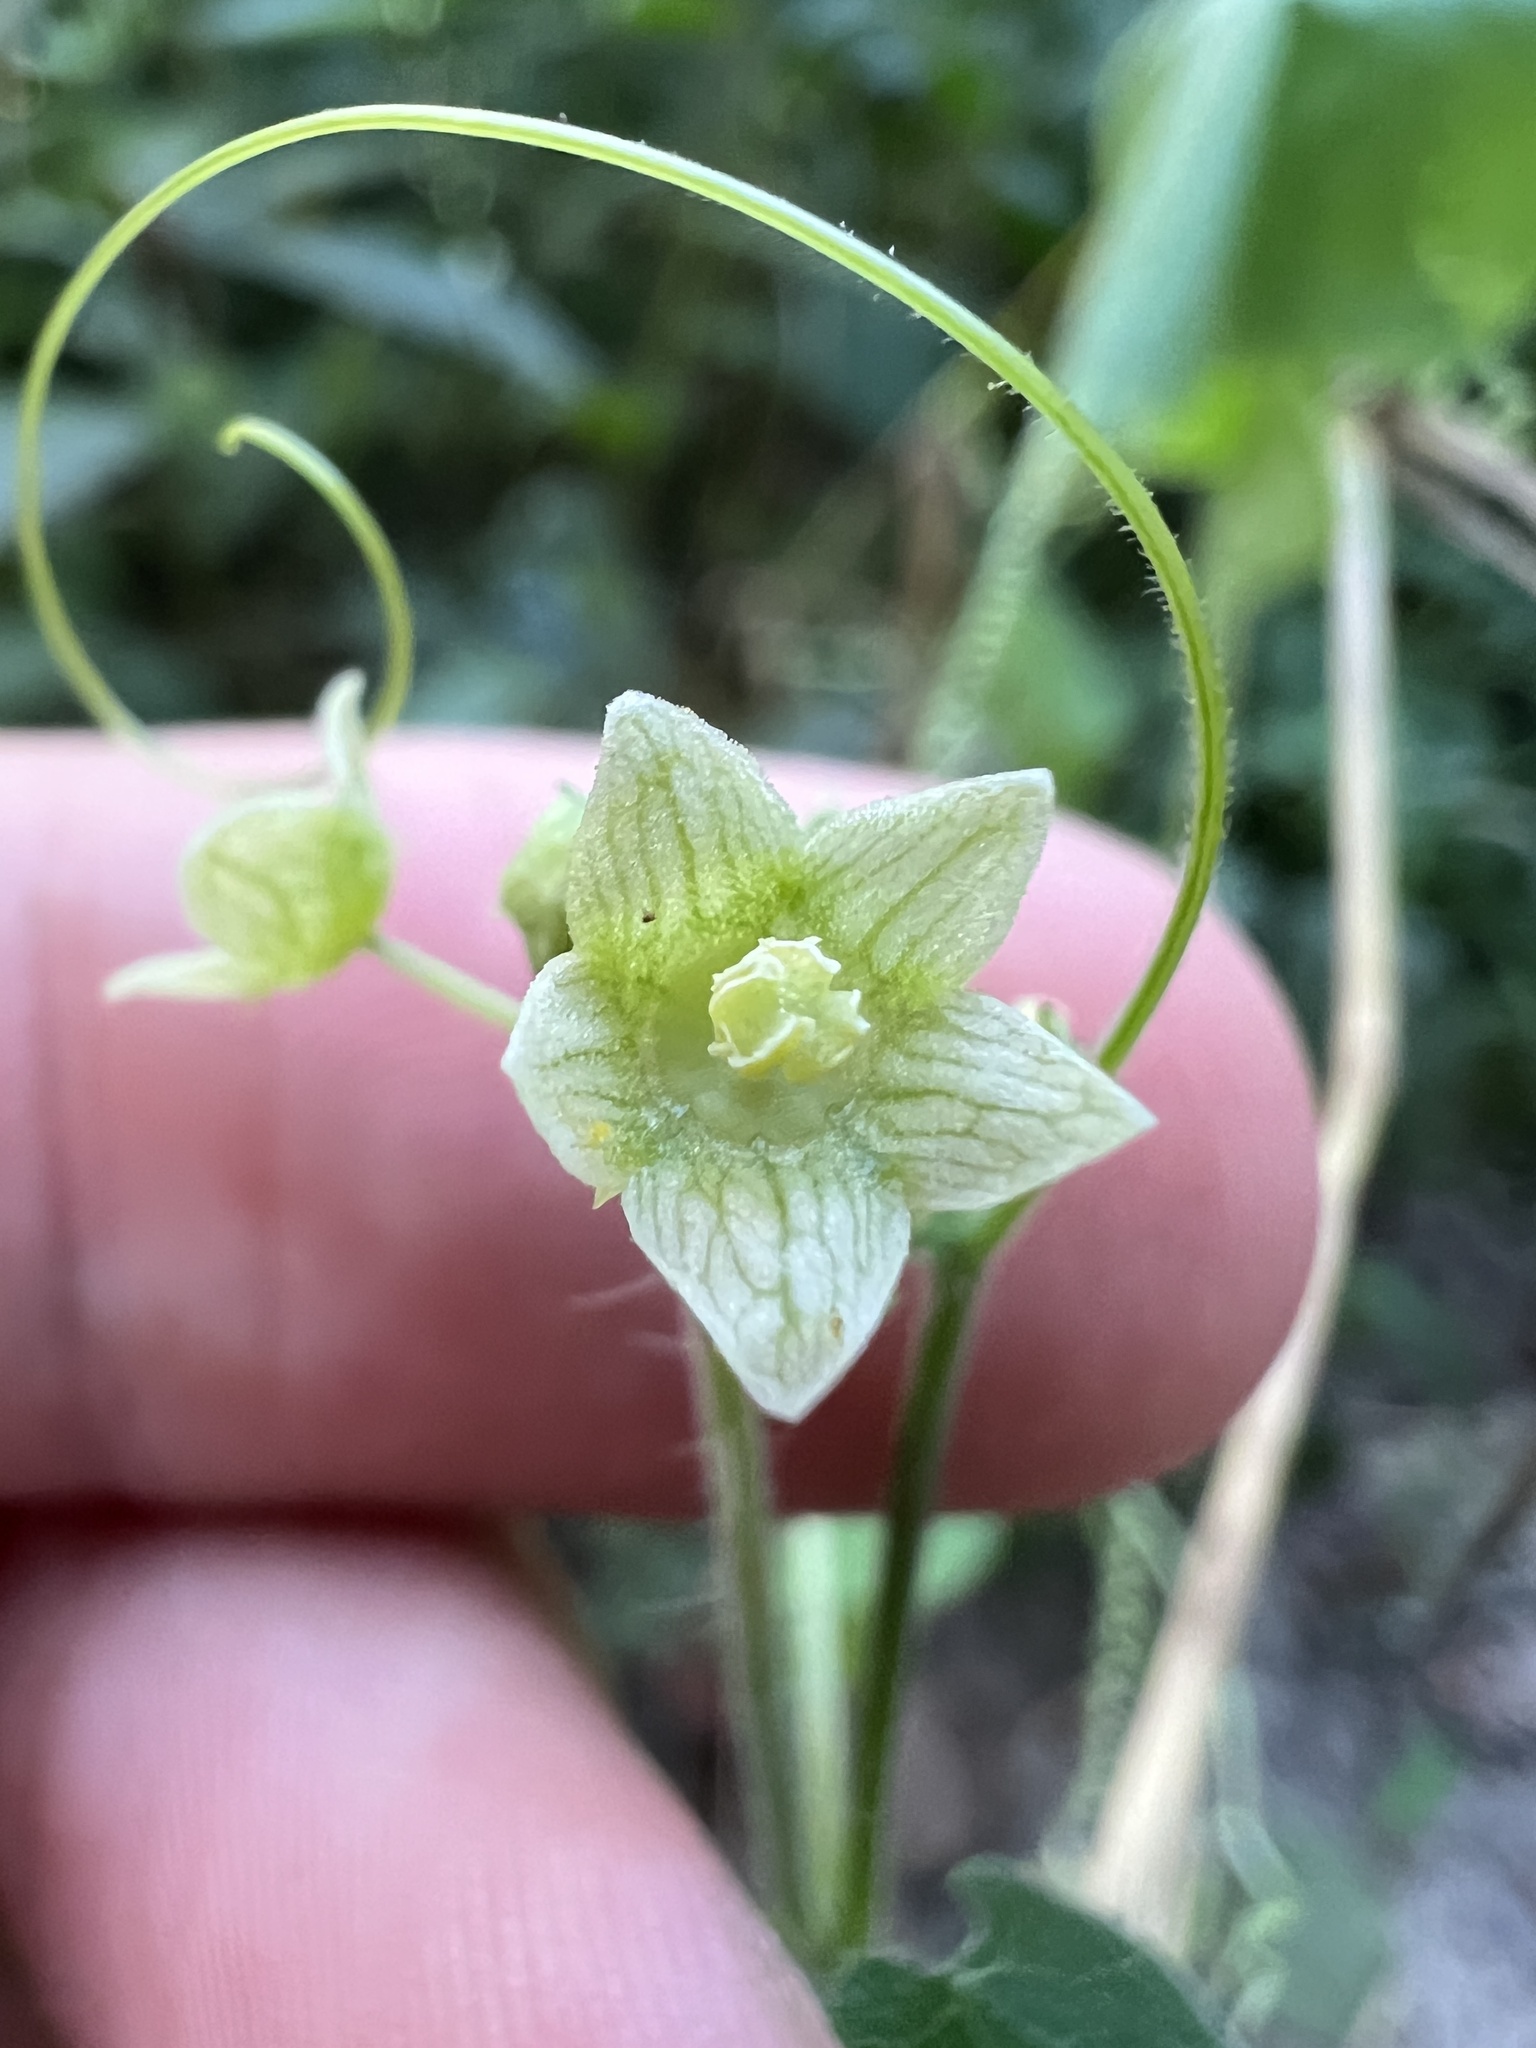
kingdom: Plantae
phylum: Tracheophyta
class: Magnoliopsida
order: Cucurbitales
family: Cucurbitaceae
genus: Sicyos
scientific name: Sicyos angulatus
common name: Angled burr cucumber
